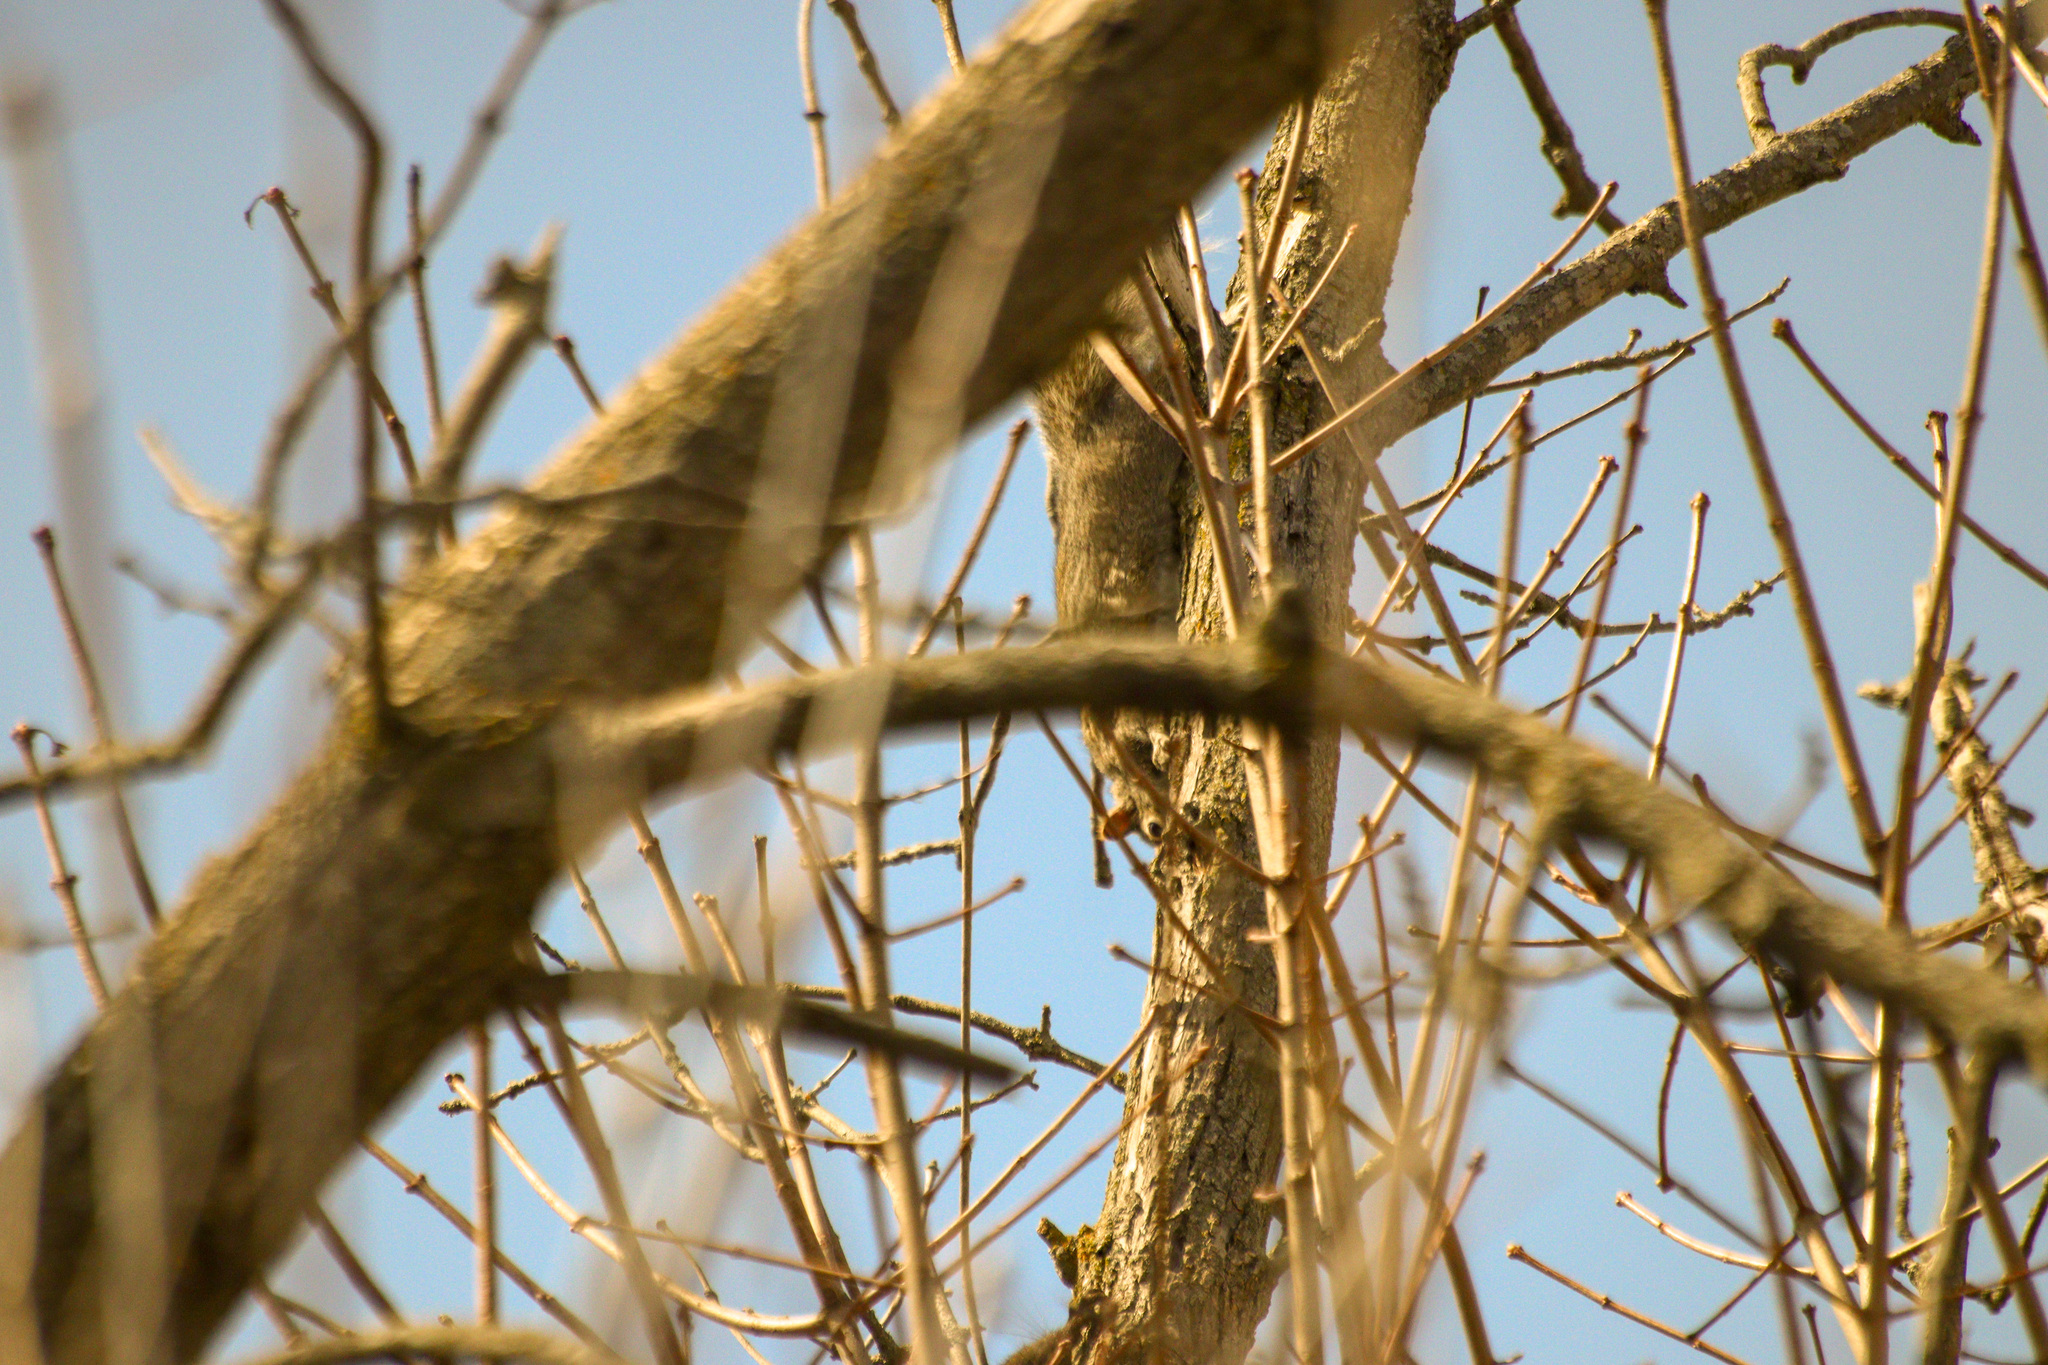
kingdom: Animalia
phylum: Chordata
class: Mammalia
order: Rodentia
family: Sciuridae
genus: Sciurus
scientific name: Sciurus carolinensis
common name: Eastern gray squirrel
